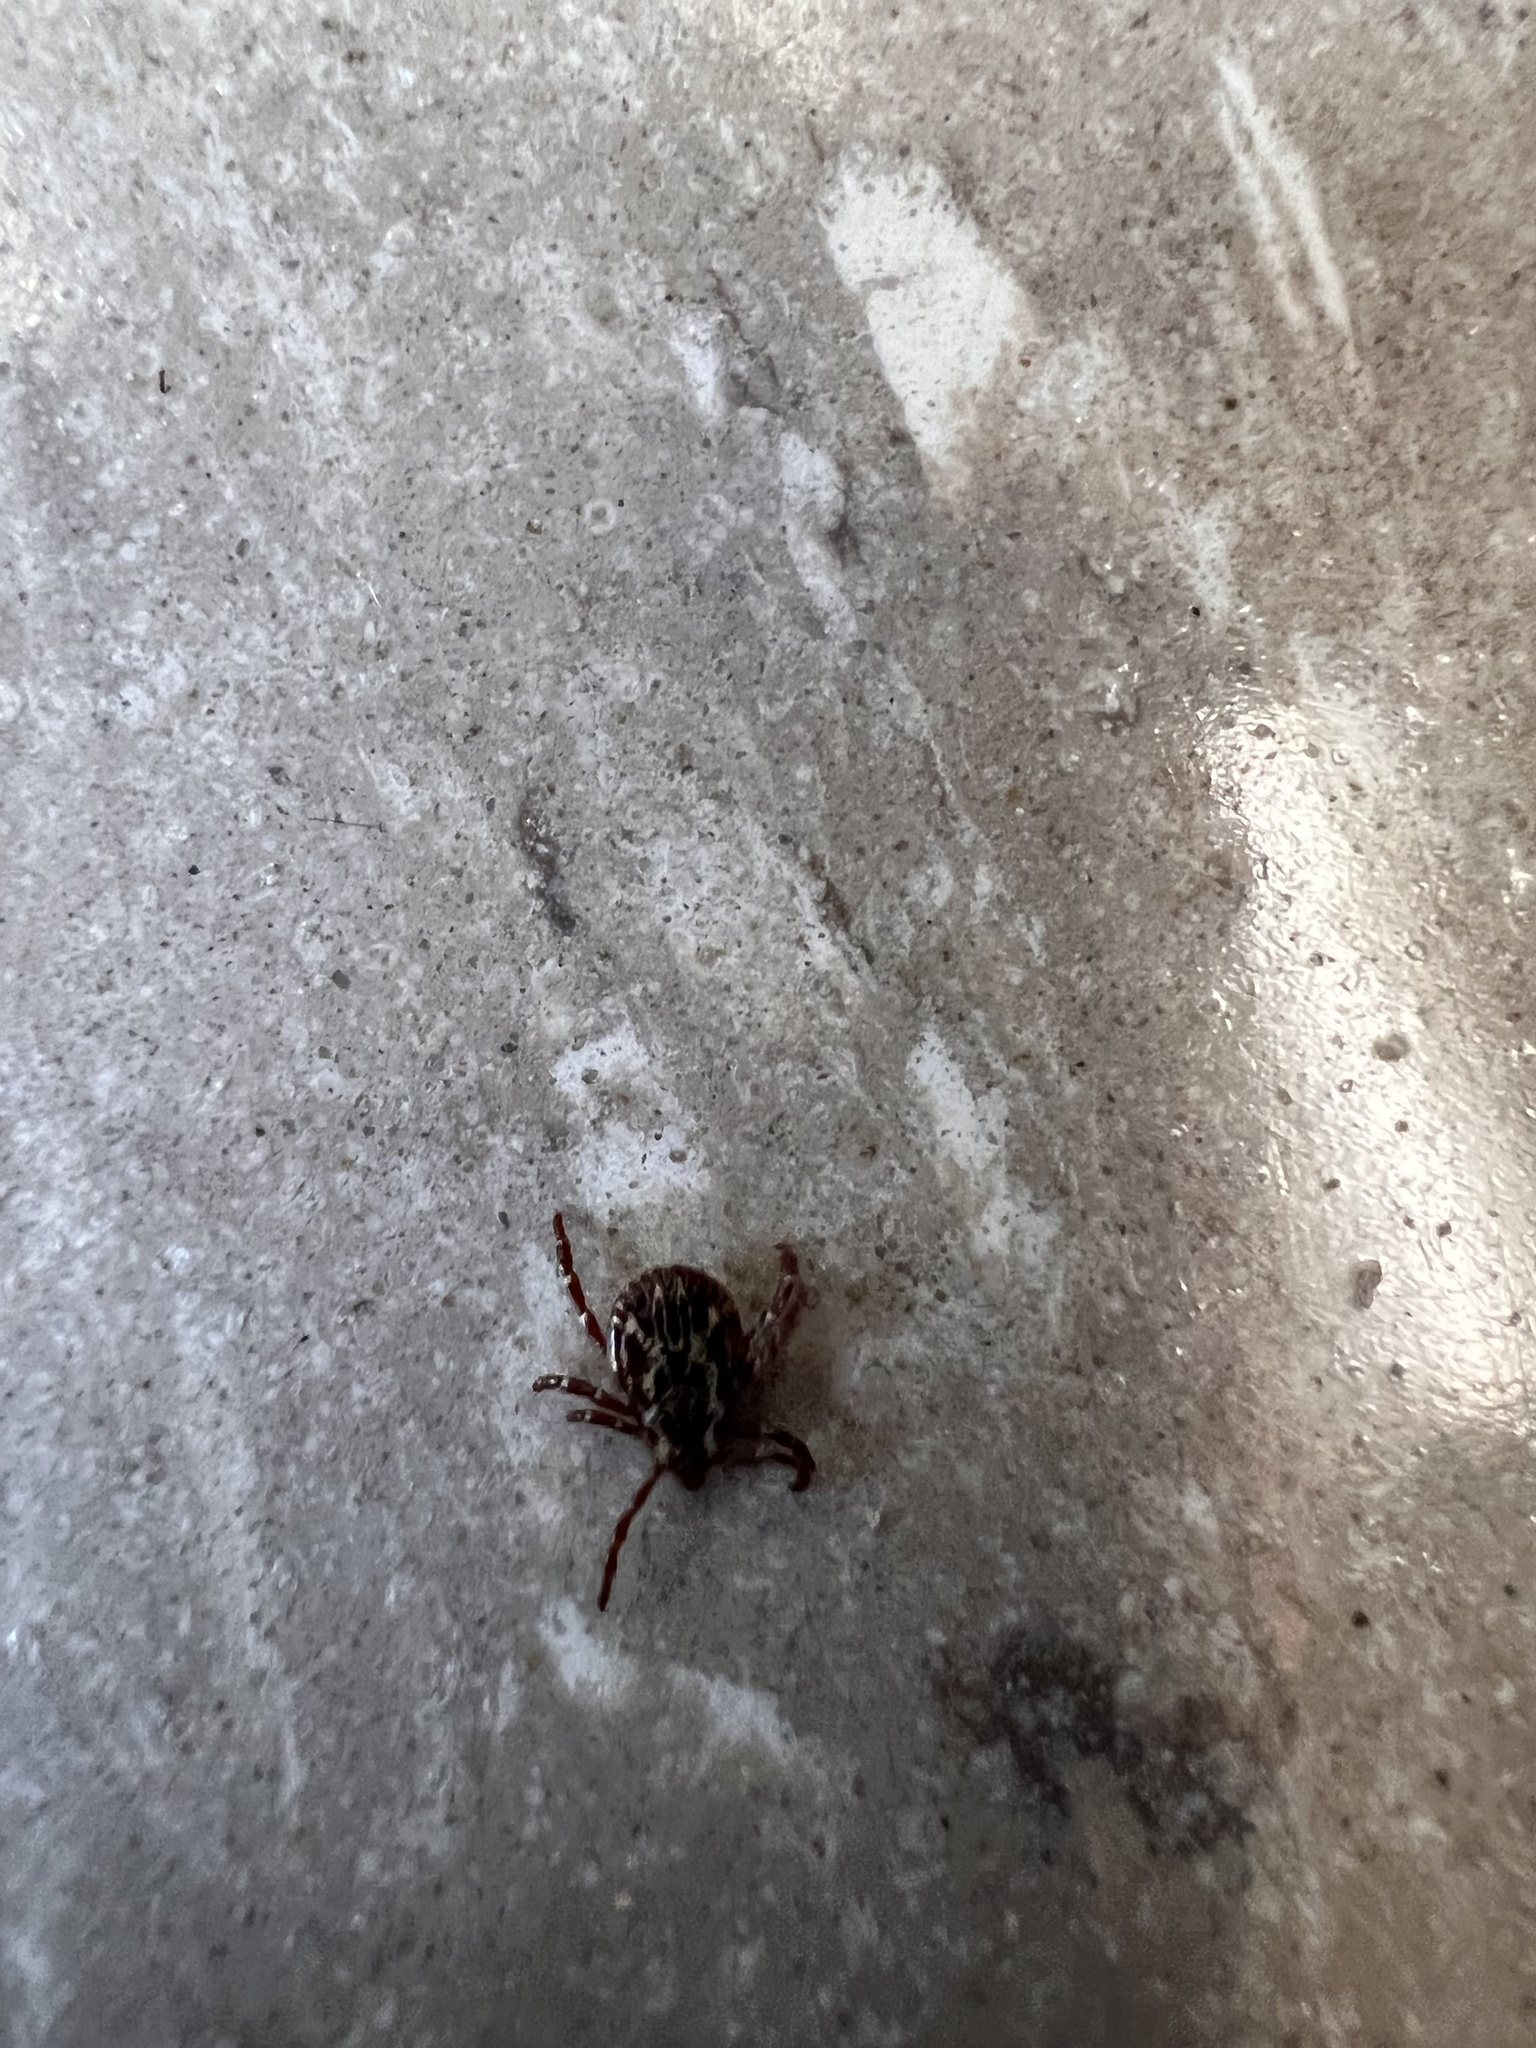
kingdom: Animalia
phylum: Arthropoda
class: Arachnida
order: Ixodida
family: Ixodidae
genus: Dermacentor
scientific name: Dermacentor variabilis
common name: American dog tick
